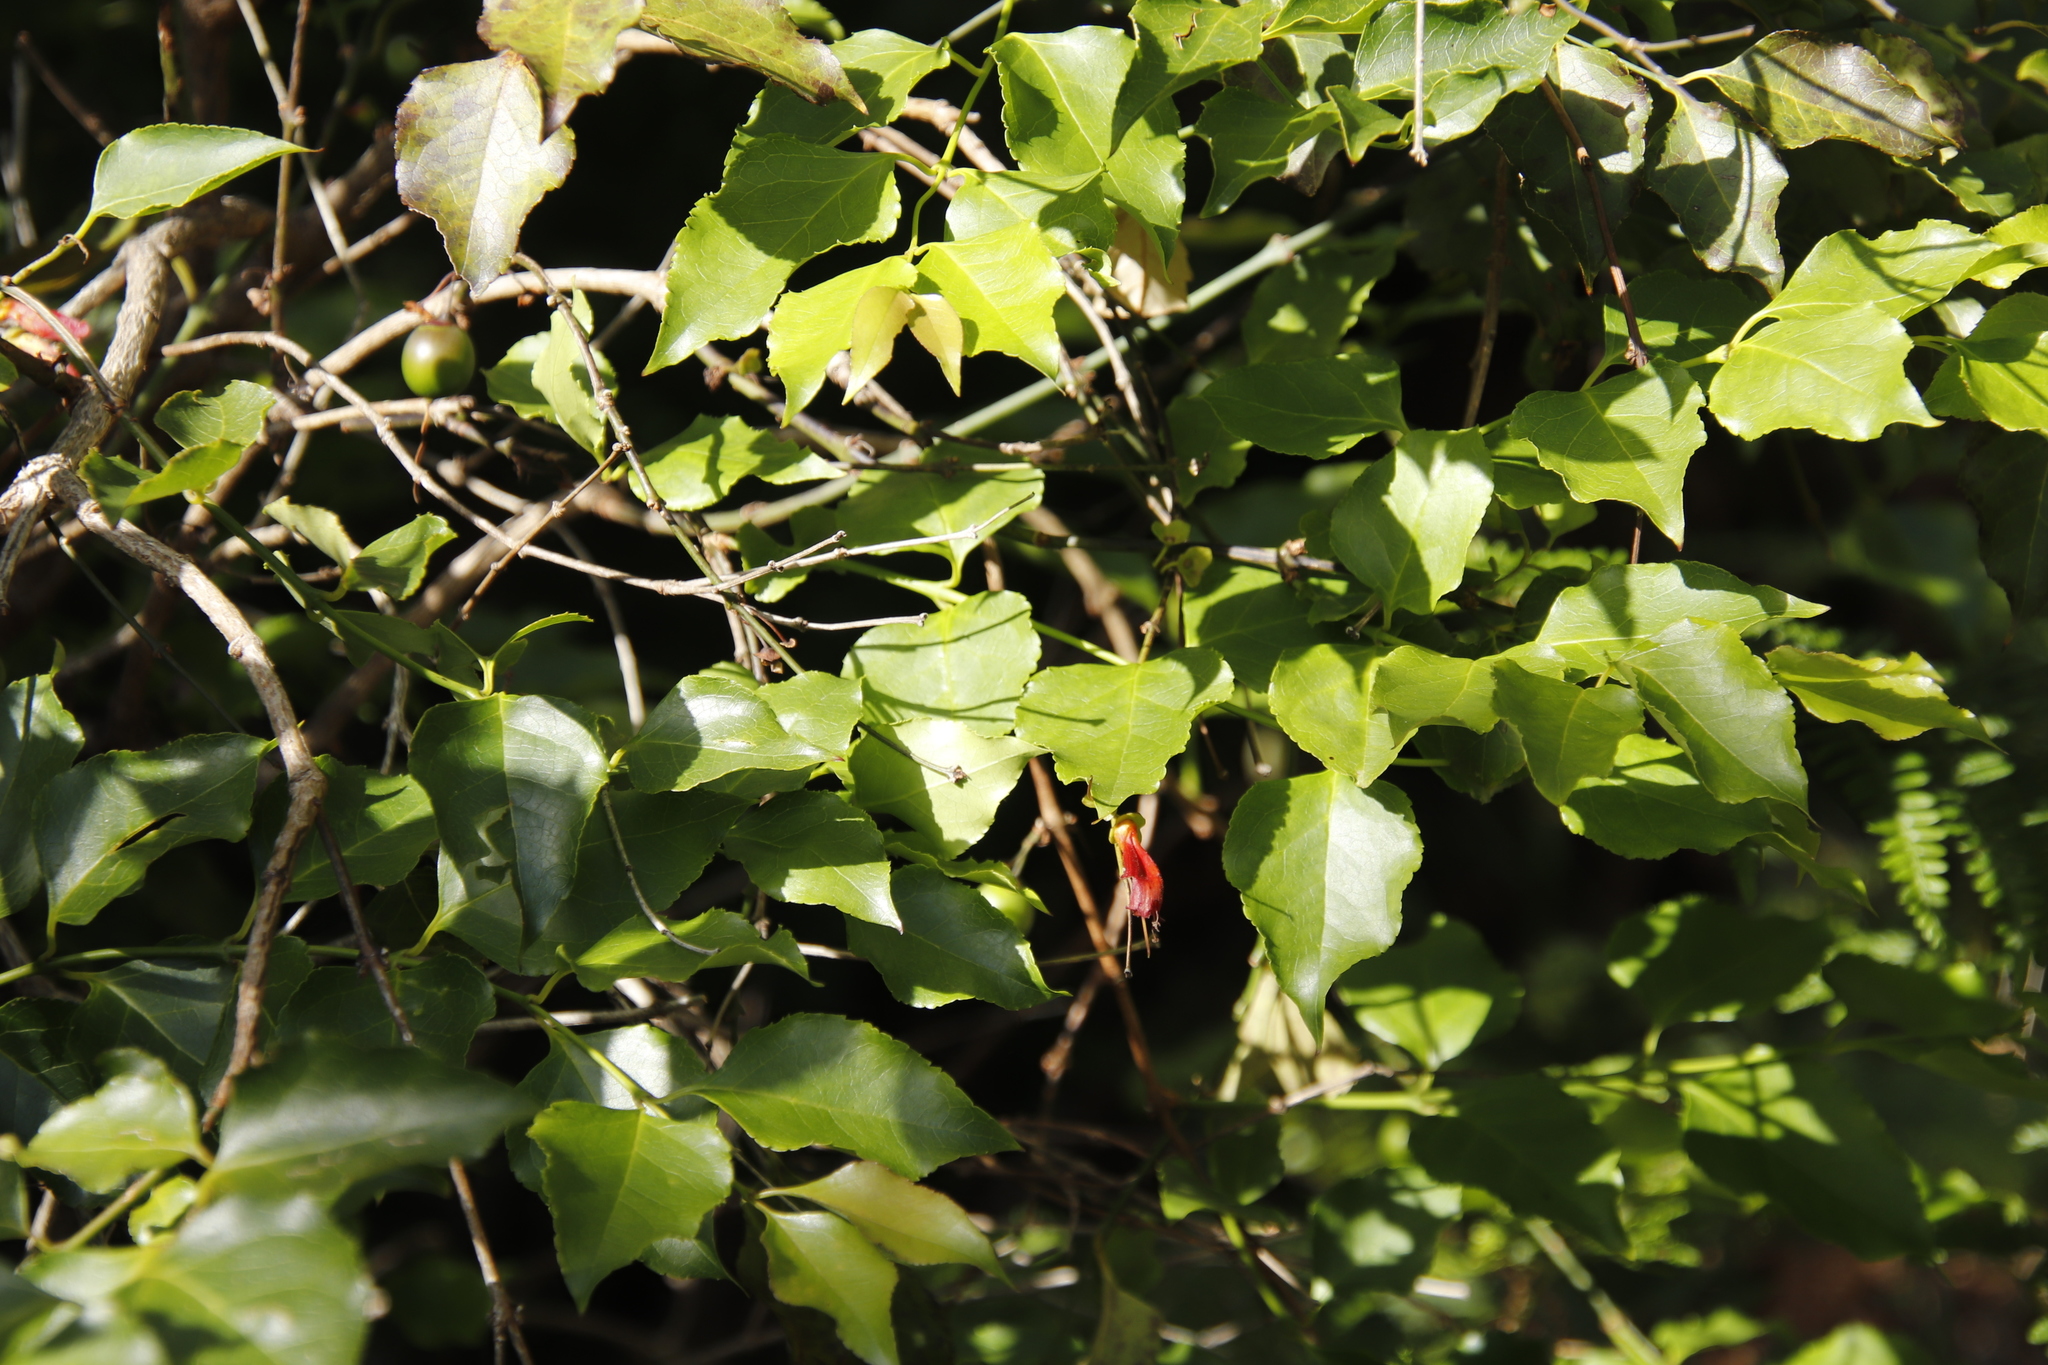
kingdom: Plantae
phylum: Tracheophyta
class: Magnoliopsida
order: Lamiales
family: Stilbaceae
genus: Halleria
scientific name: Halleria lucida
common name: Tree fuschia
